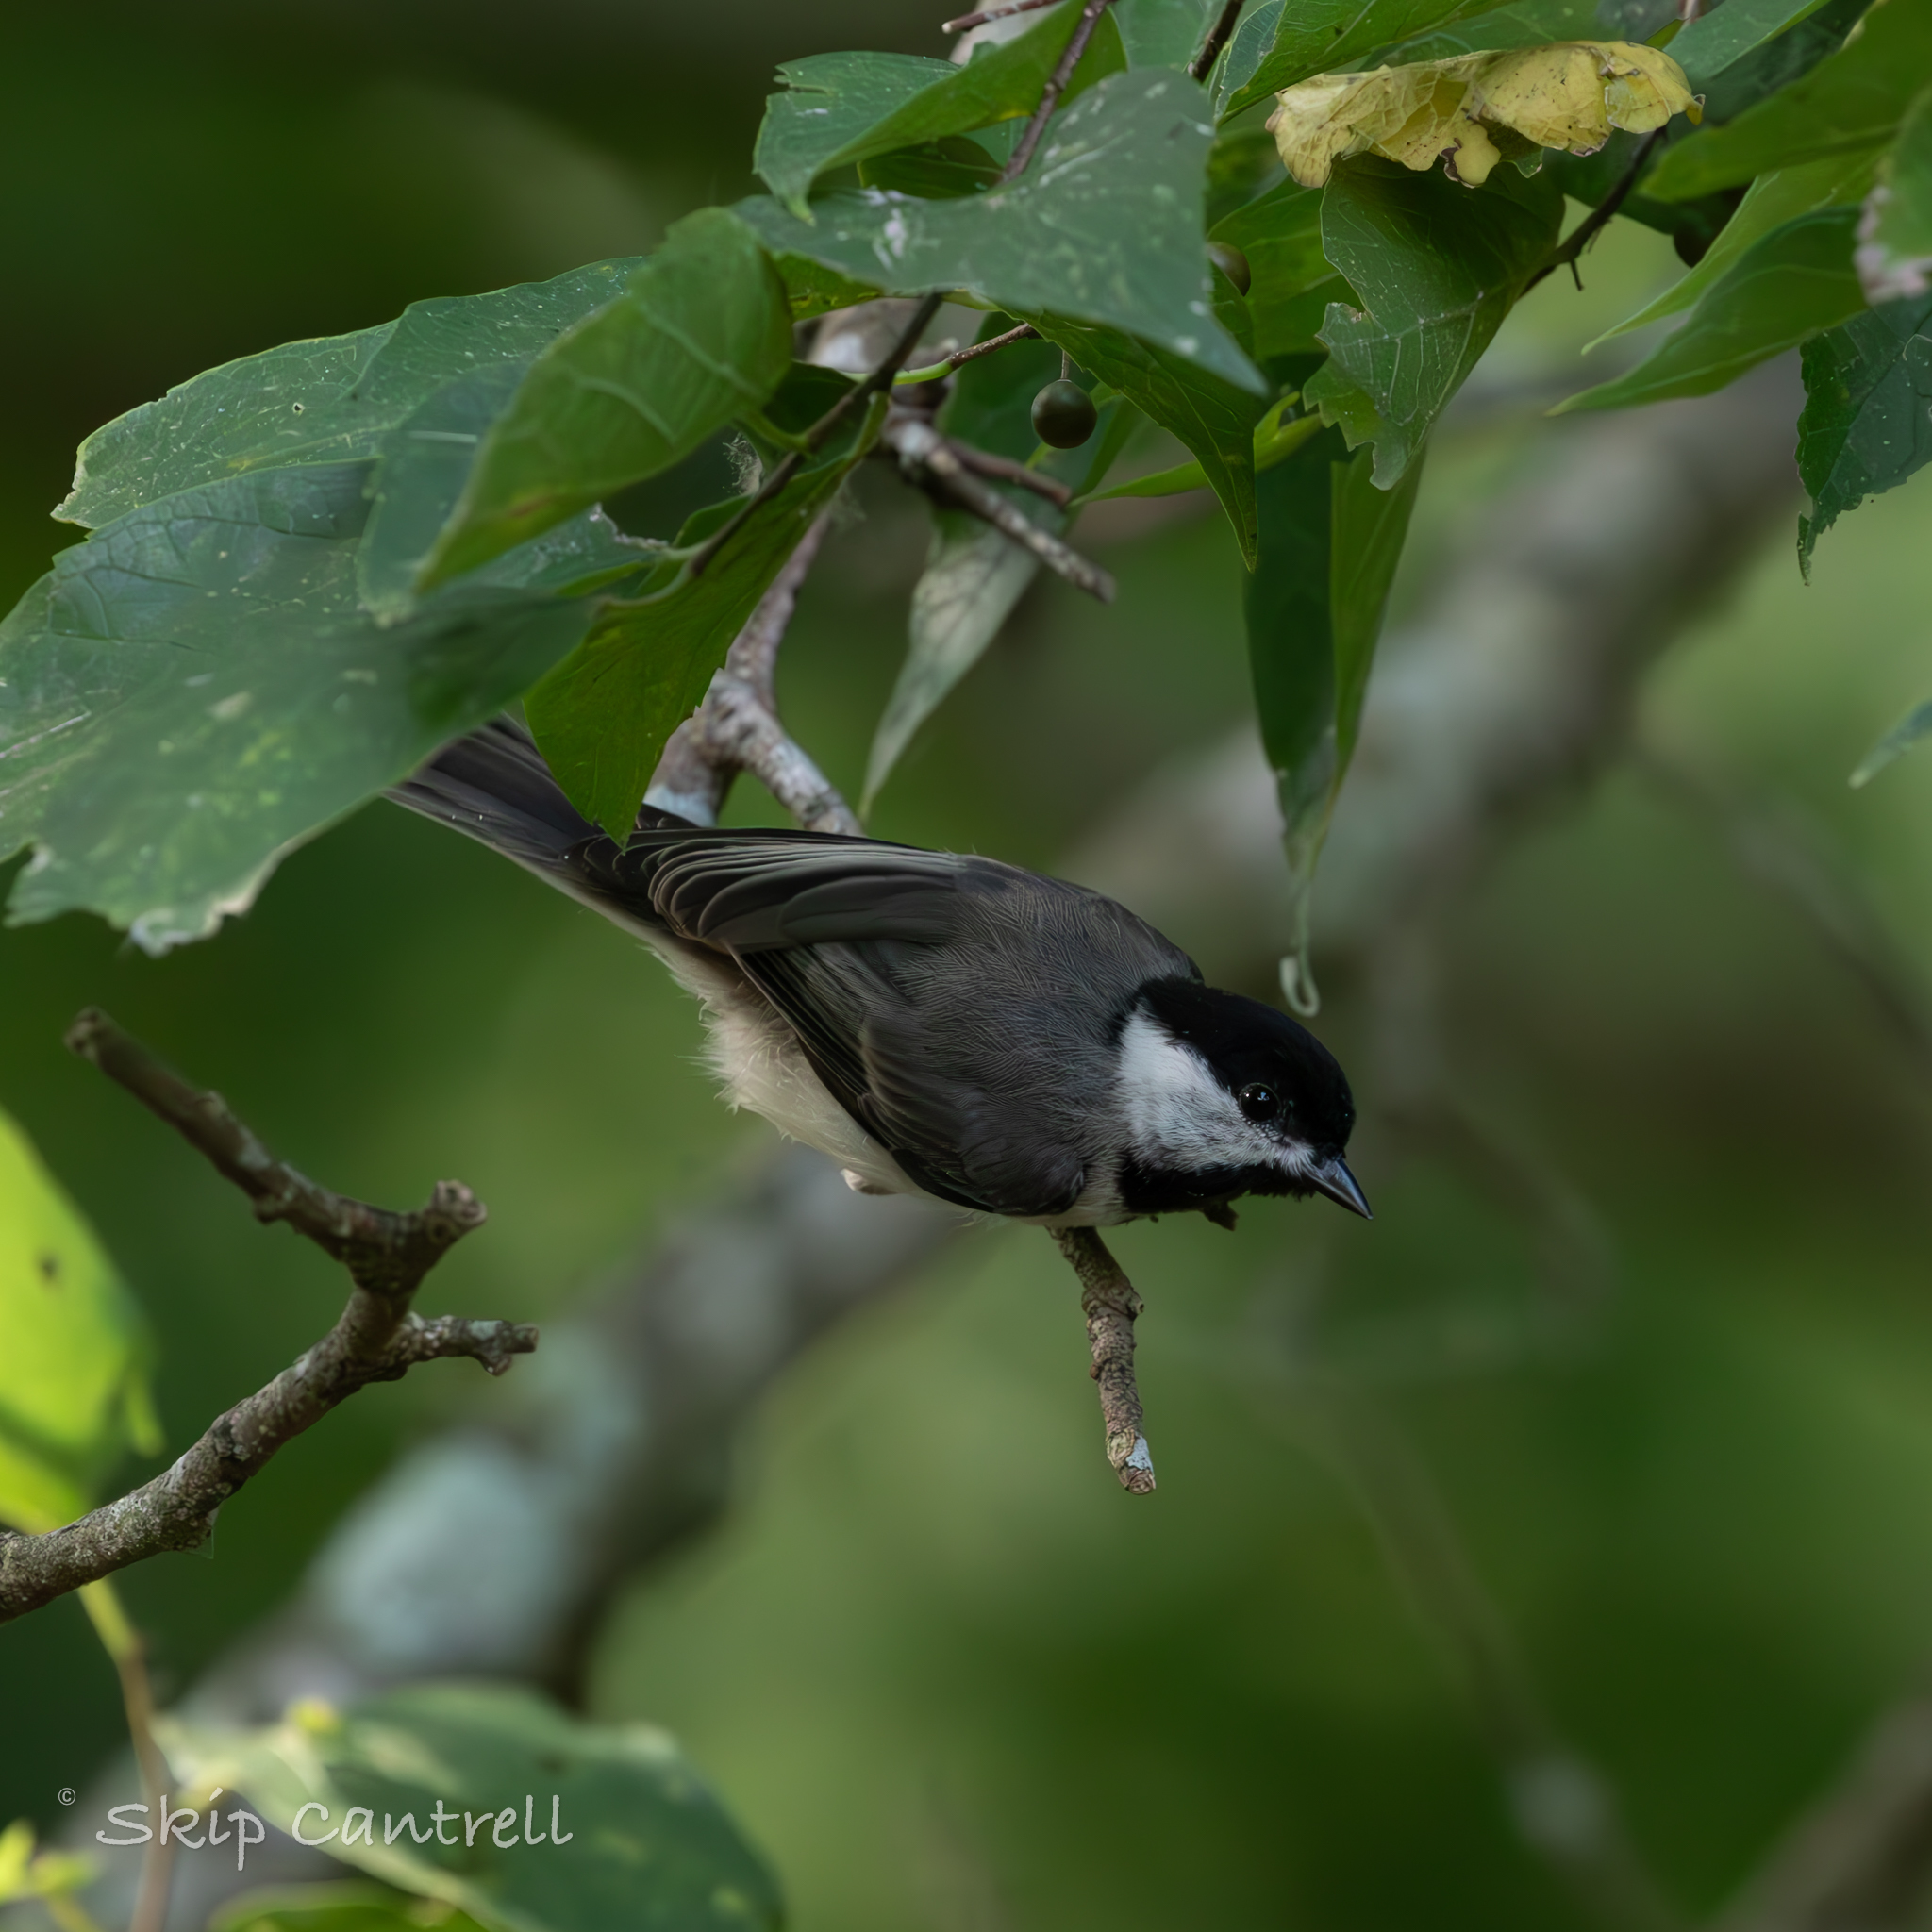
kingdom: Animalia
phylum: Chordata
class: Aves
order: Passeriformes
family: Paridae
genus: Poecile
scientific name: Poecile carolinensis
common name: Carolina chickadee
